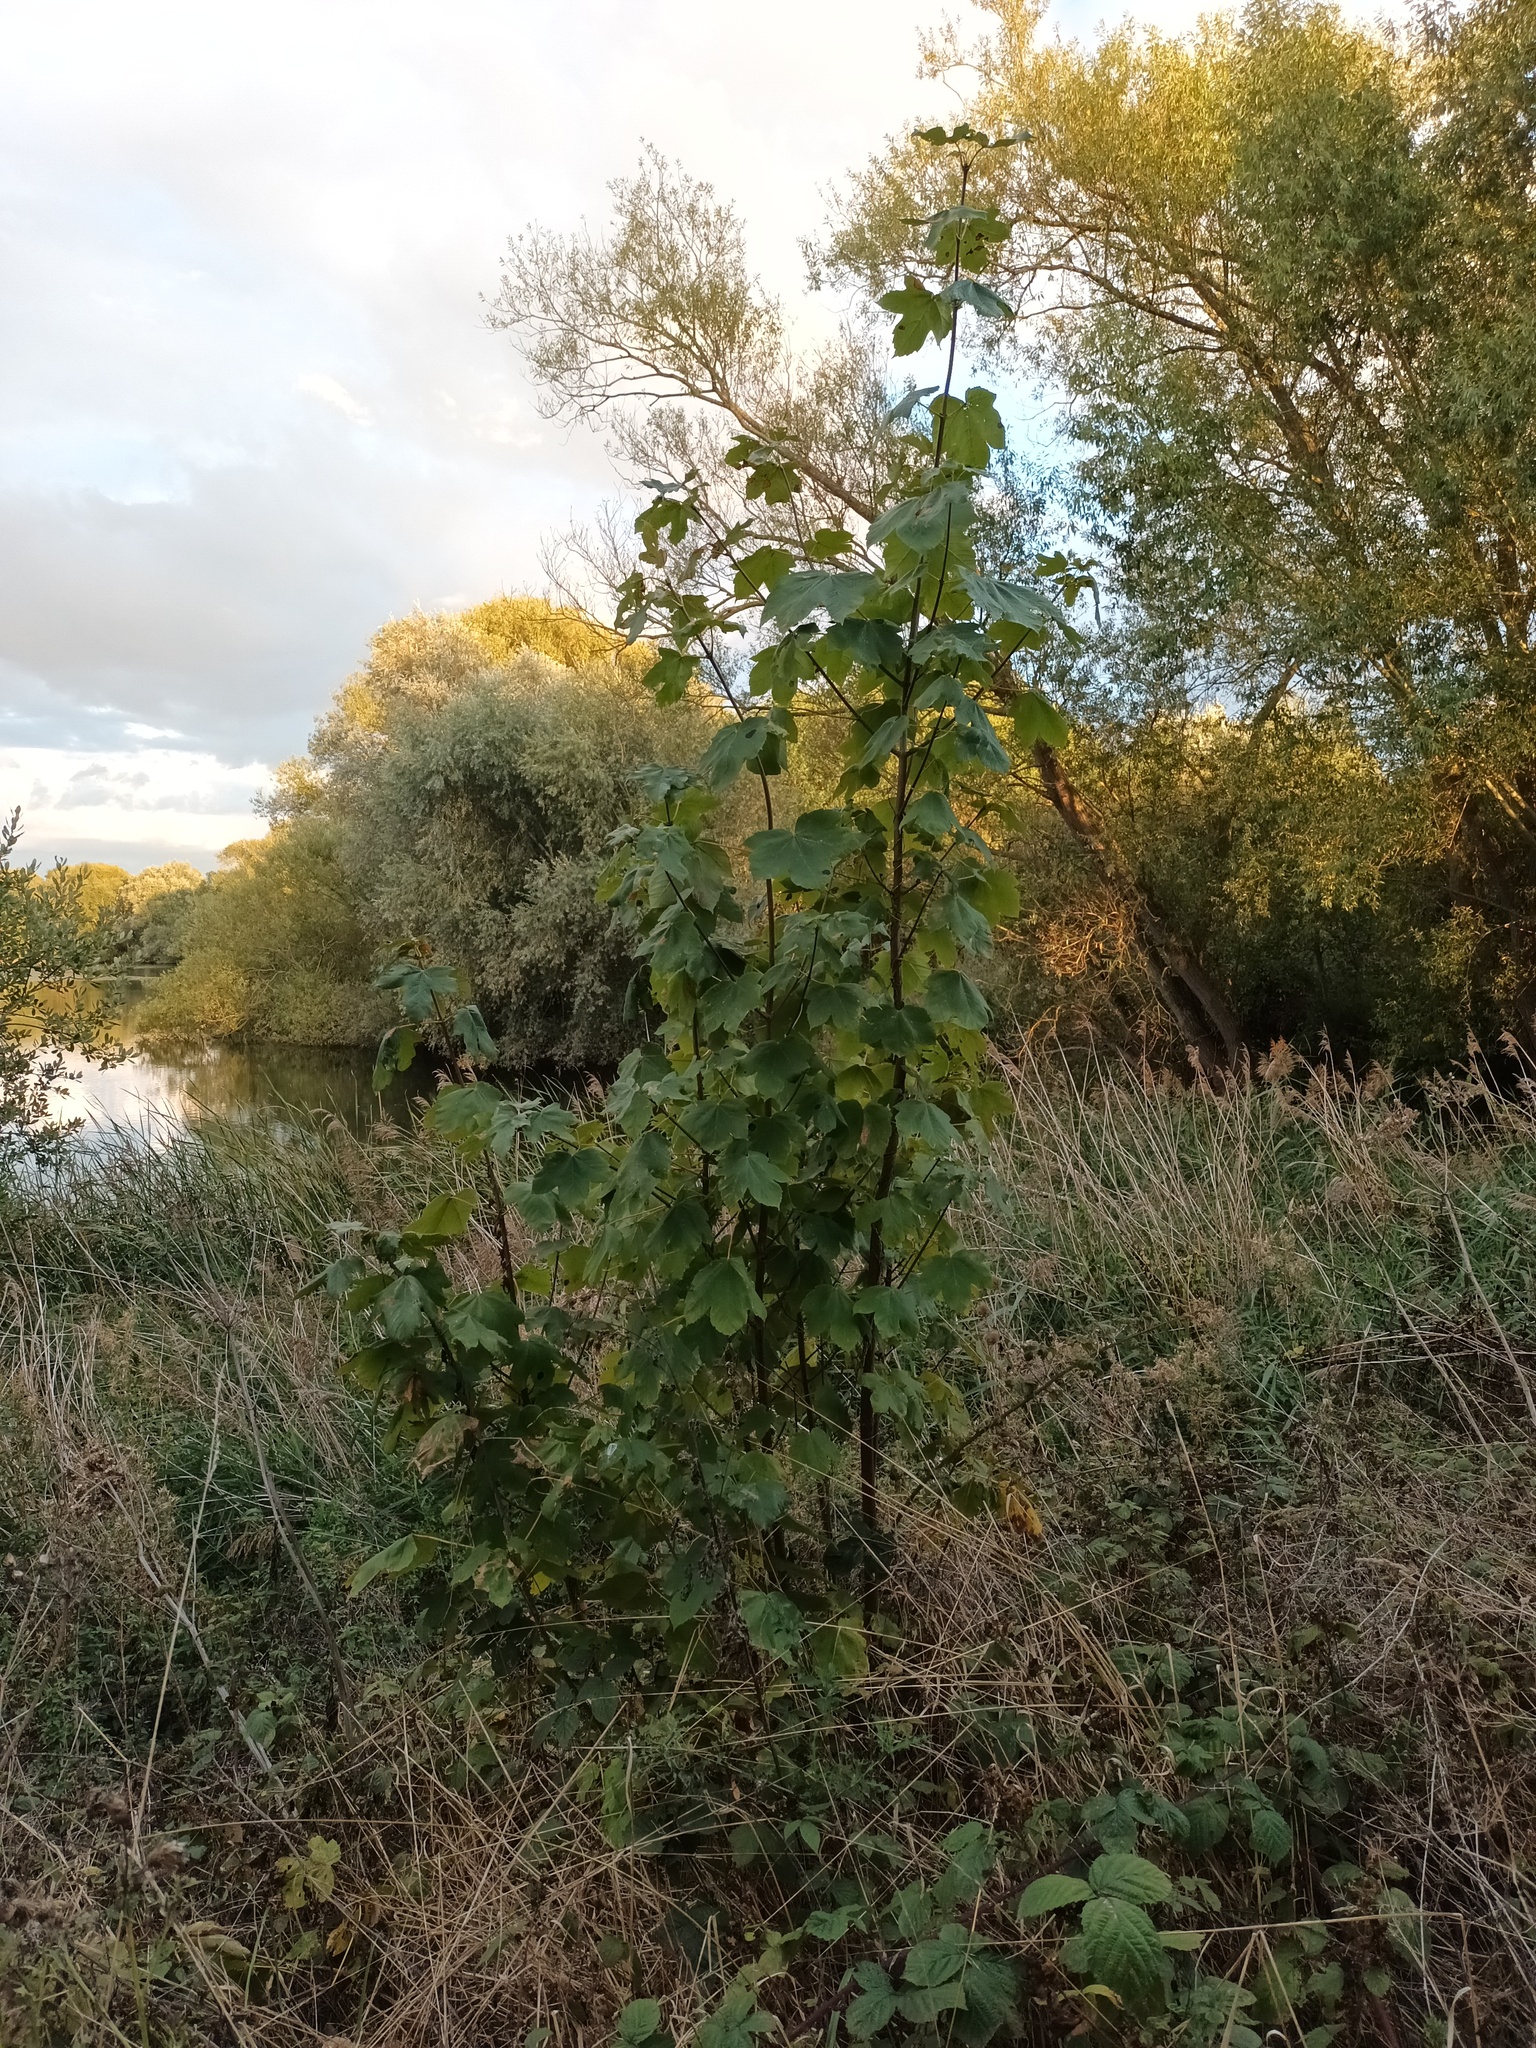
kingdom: Plantae
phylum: Tracheophyta
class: Magnoliopsida
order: Sapindales
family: Sapindaceae
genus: Acer
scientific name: Acer pseudoplatanus
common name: Sycamore
